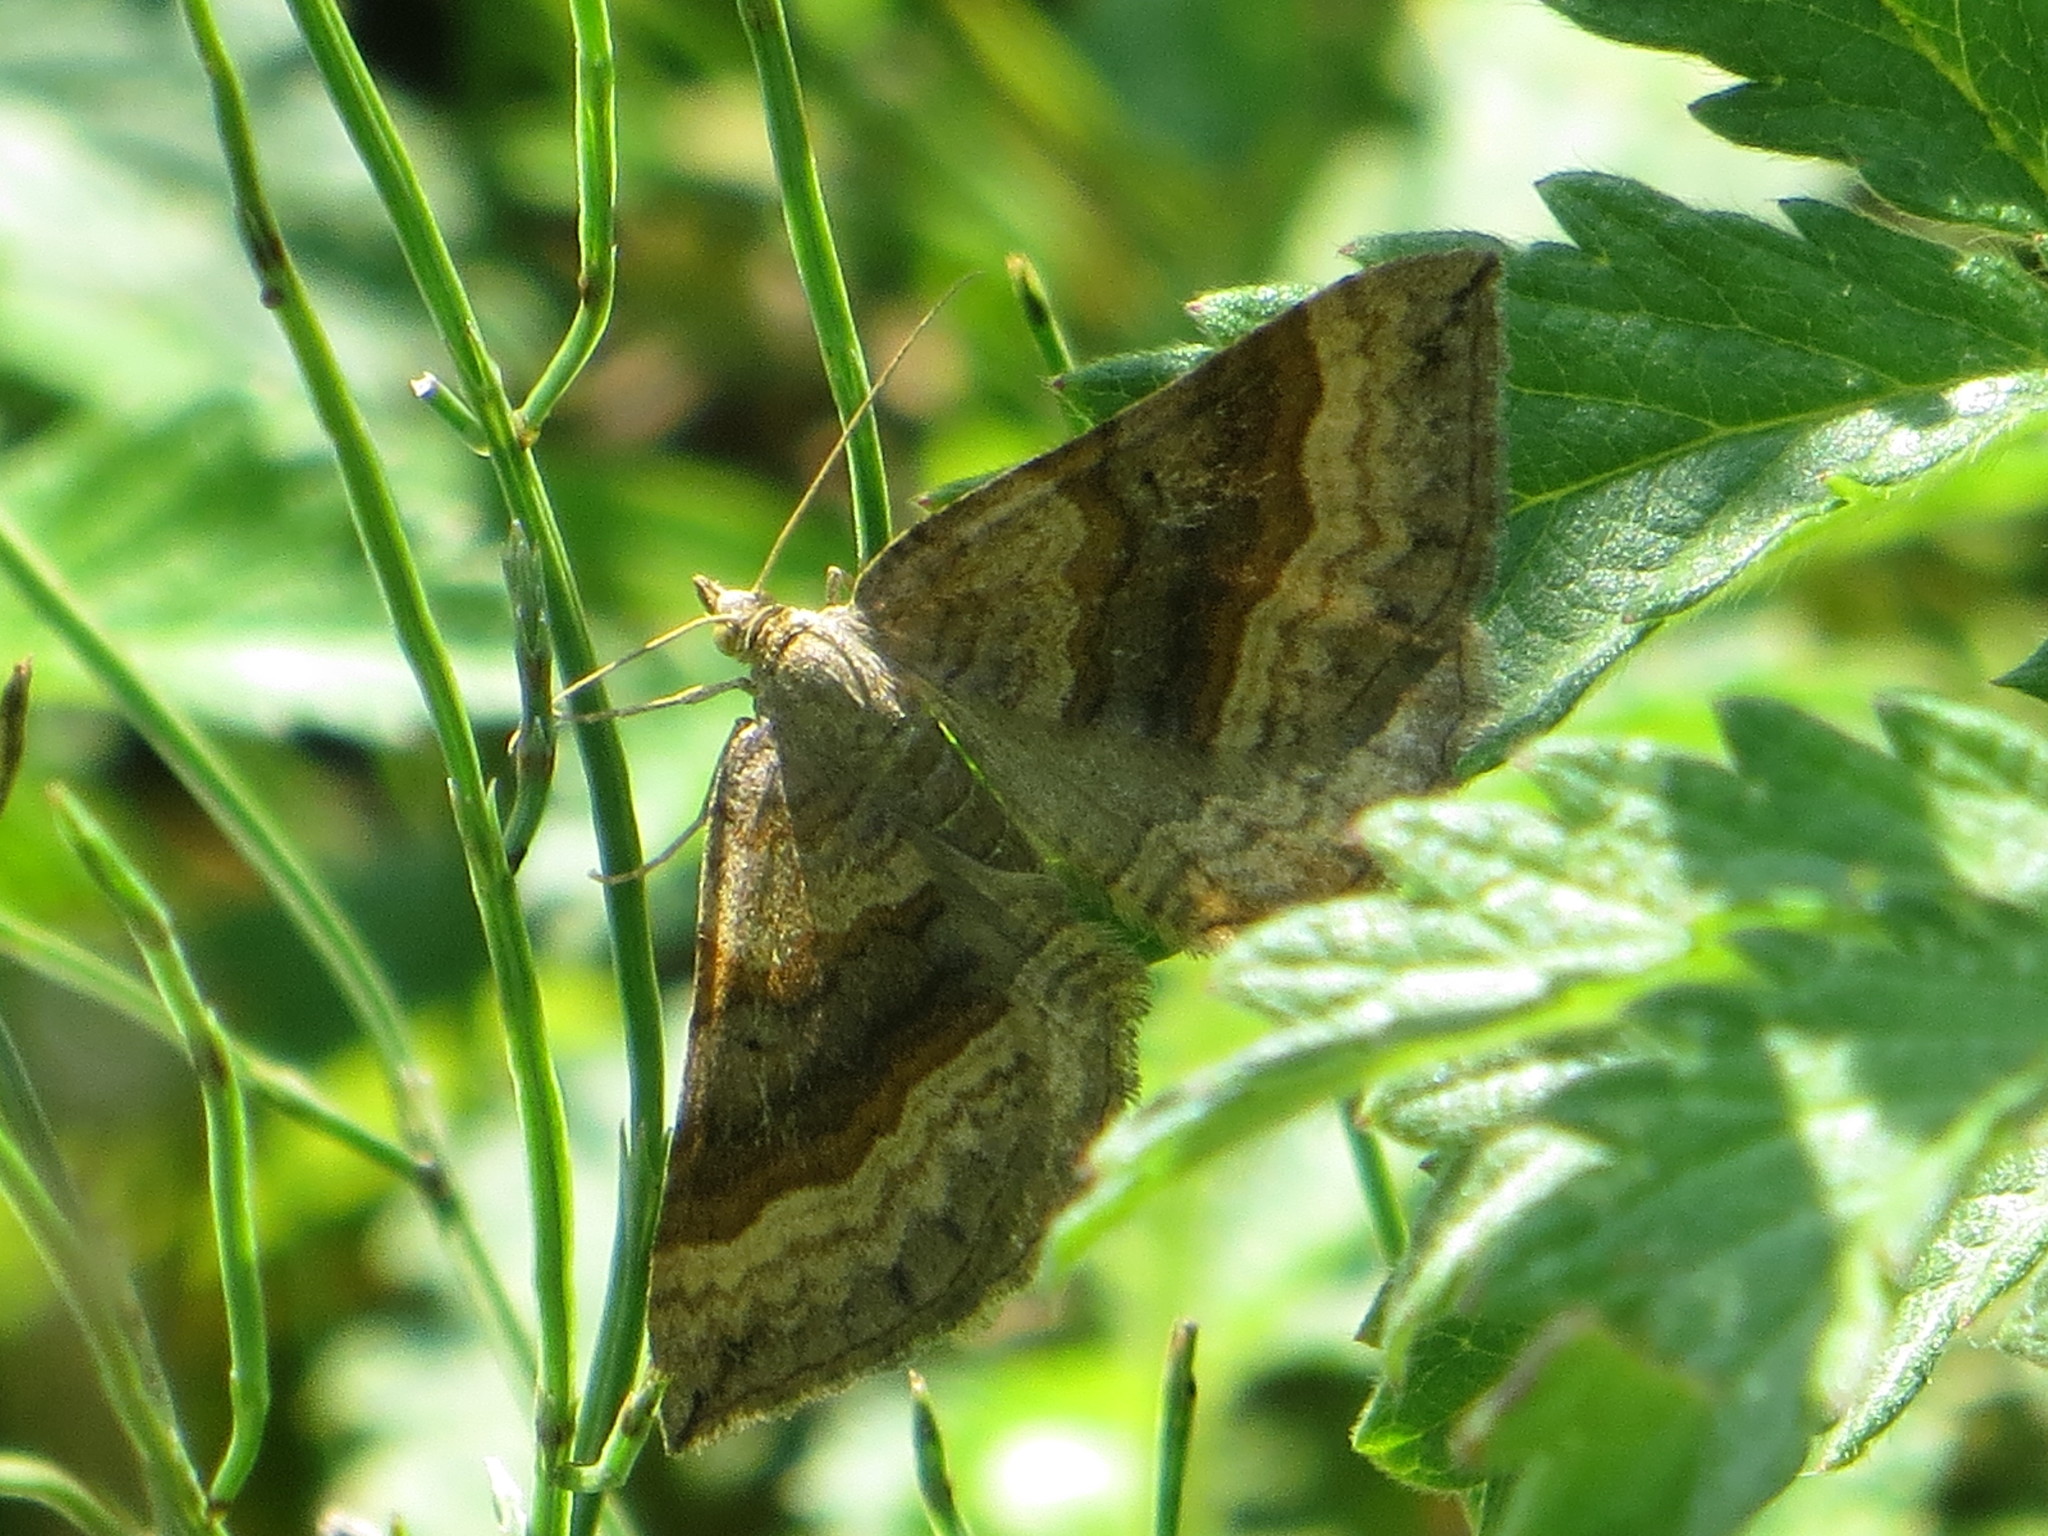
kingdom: Animalia
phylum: Arthropoda
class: Insecta
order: Lepidoptera
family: Geometridae
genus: Scotopteryx
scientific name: Scotopteryx chenopodiata
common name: Shaded broad-bar
